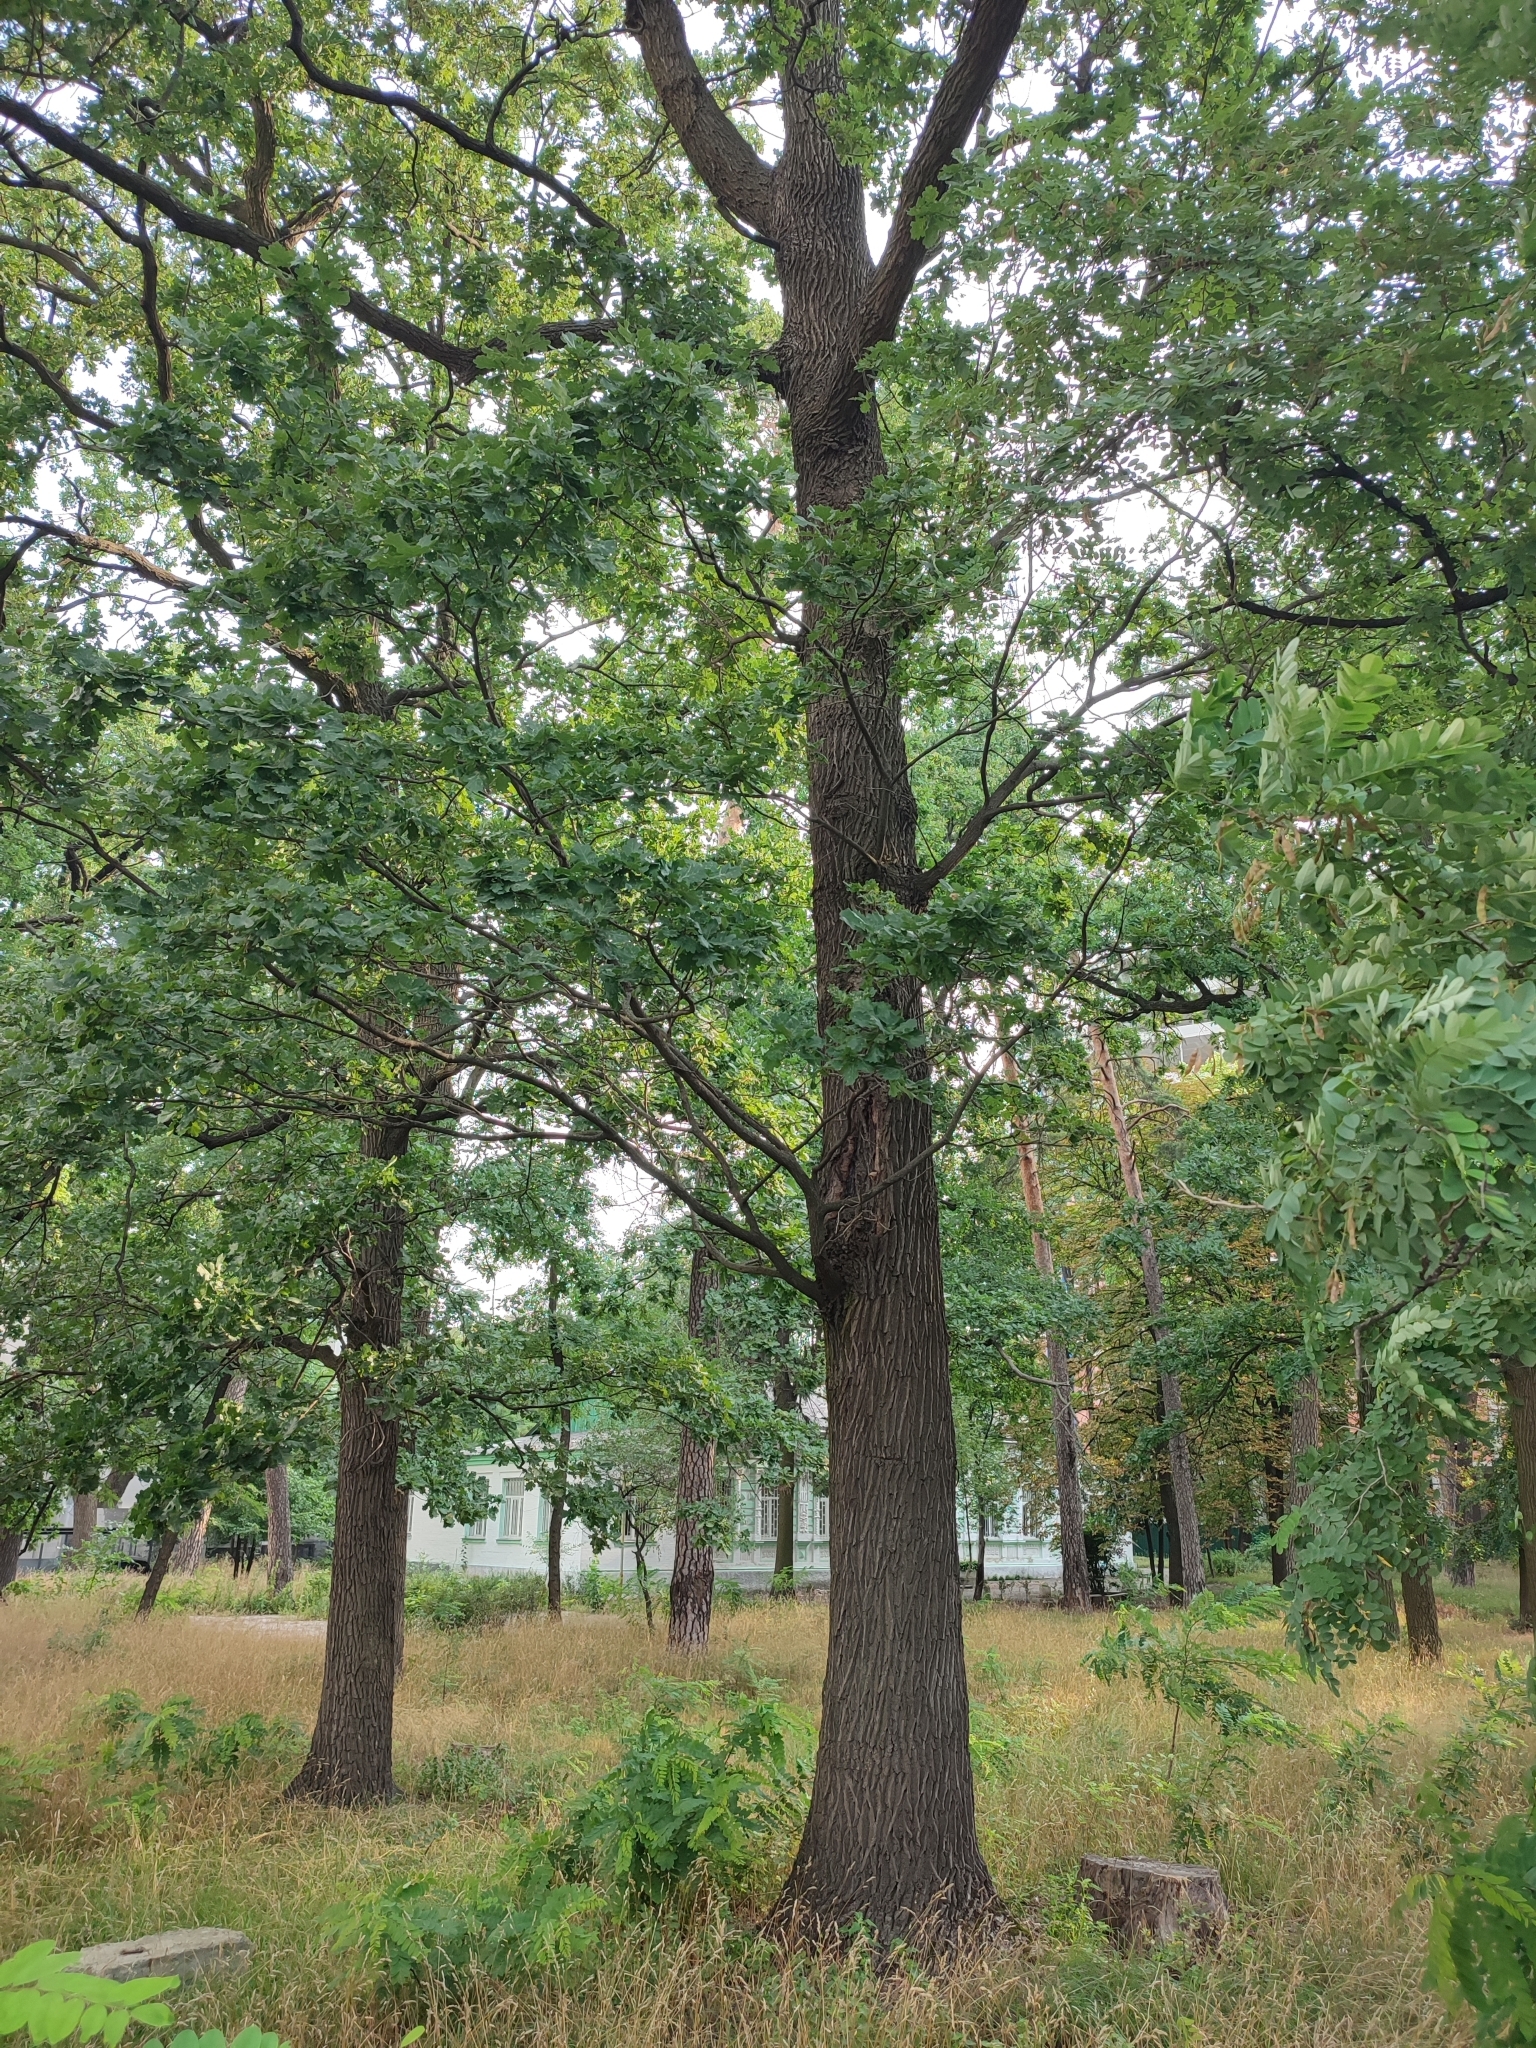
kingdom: Plantae
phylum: Tracheophyta
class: Magnoliopsida
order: Fagales
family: Fagaceae
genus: Quercus
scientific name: Quercus robur
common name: Pedunculate oak
